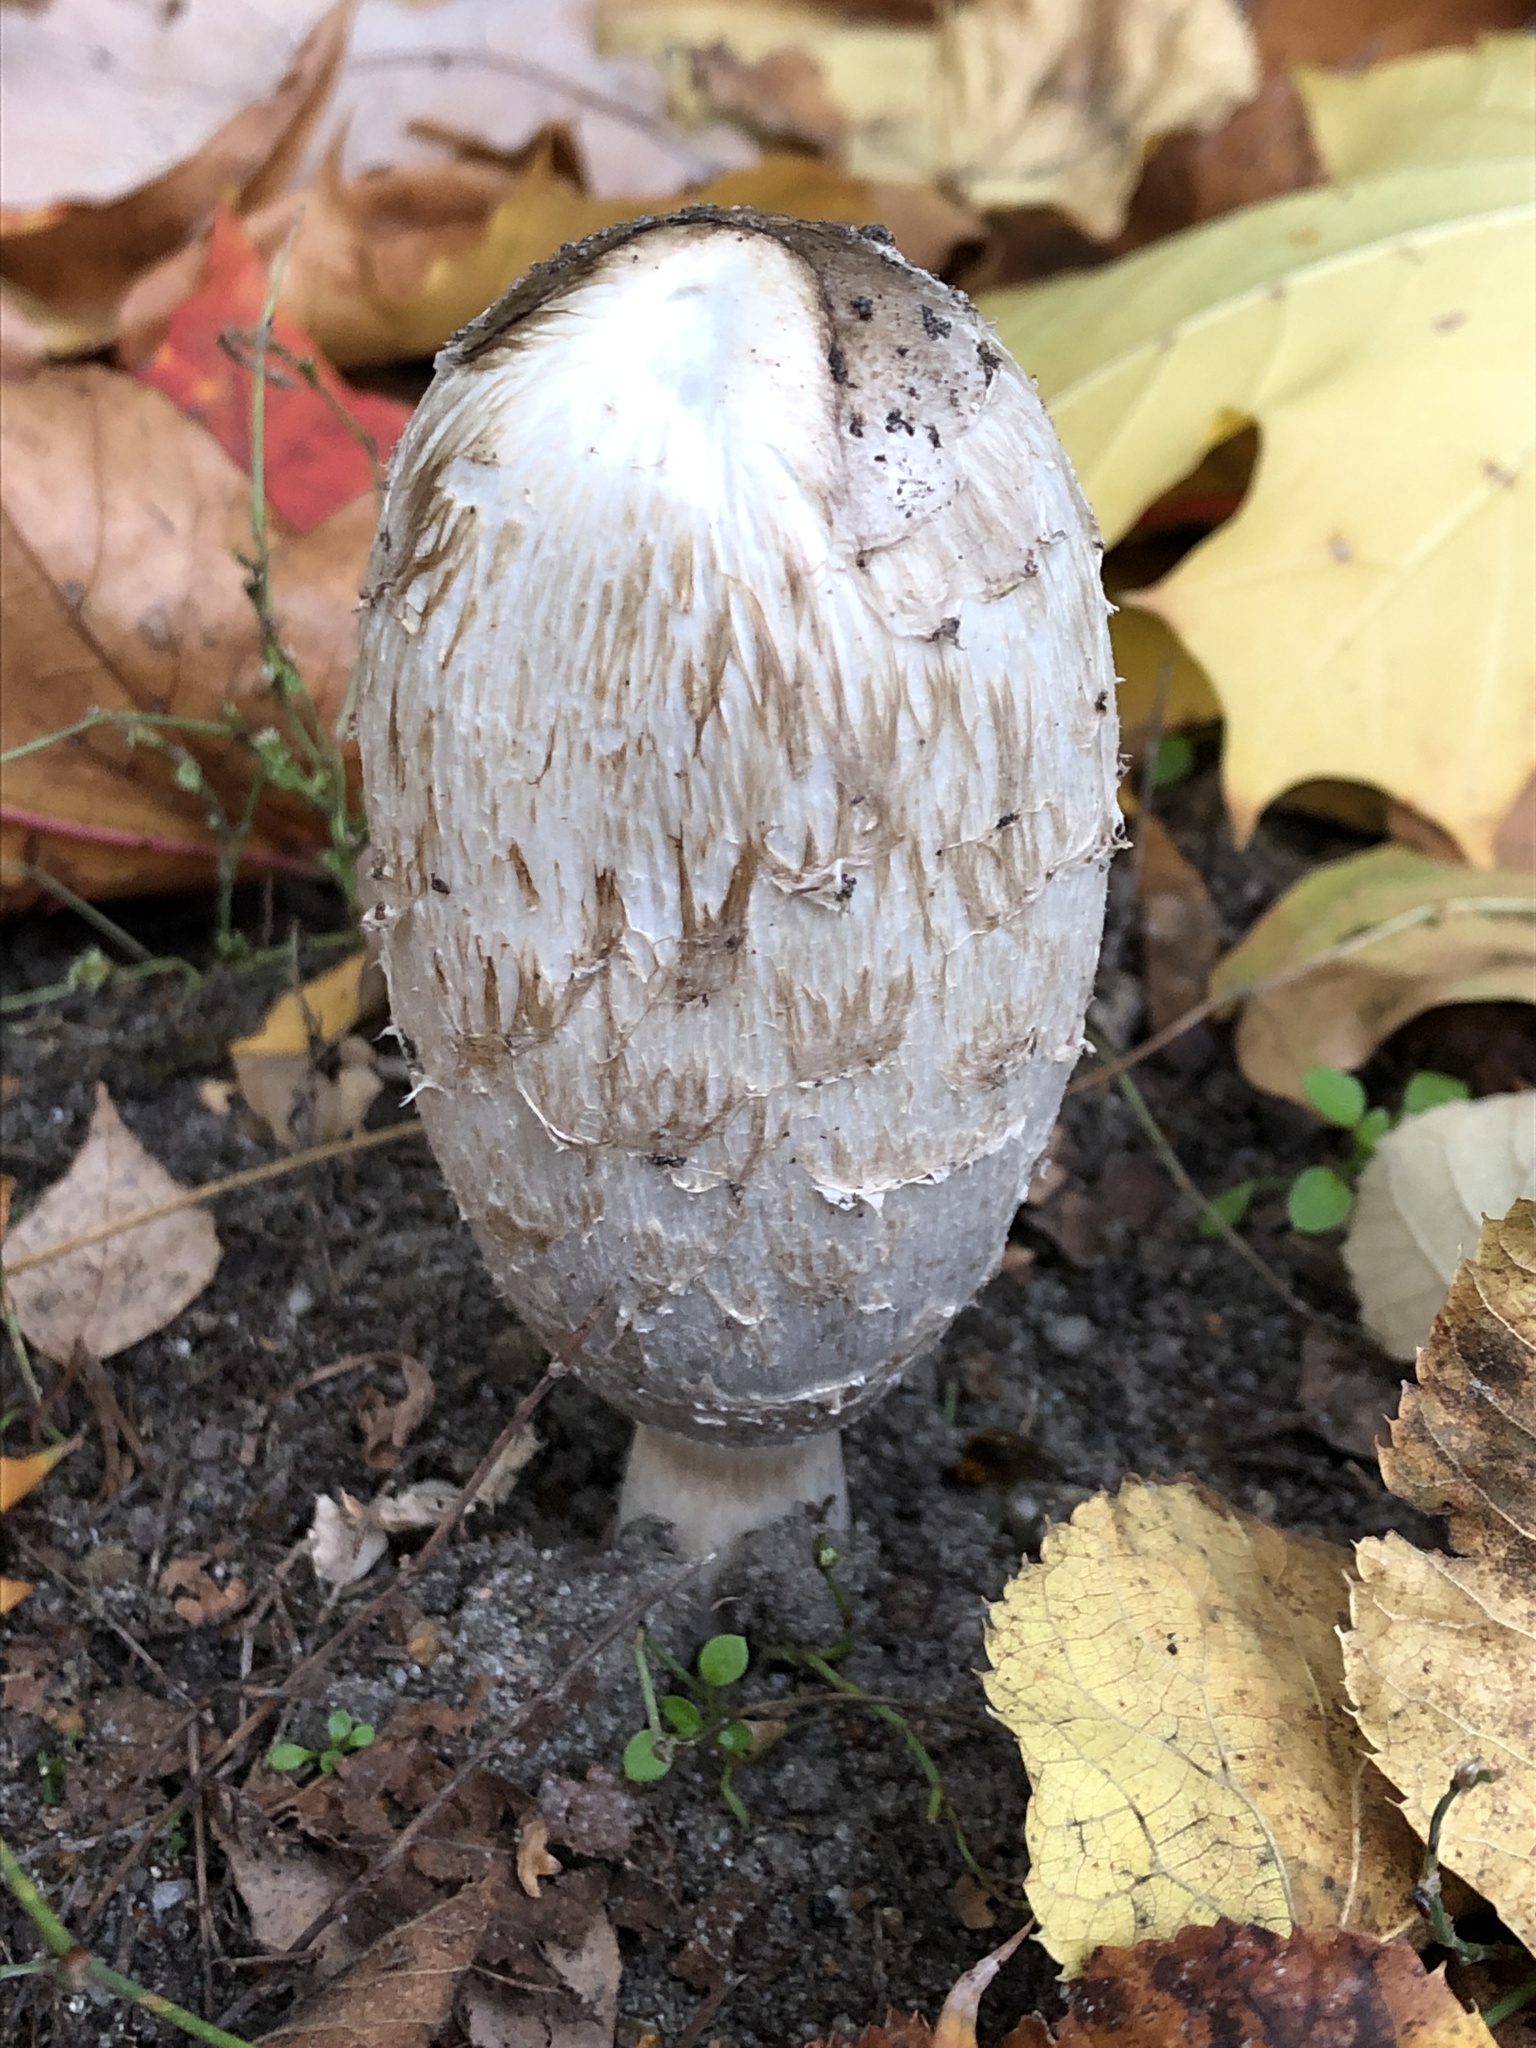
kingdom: Fungi
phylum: Basidiomycota
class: Agaricomycetes
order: Agaricales
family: Agaricaceae
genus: Coprinus
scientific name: Coprinus comatus
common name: Lawyer's wig
